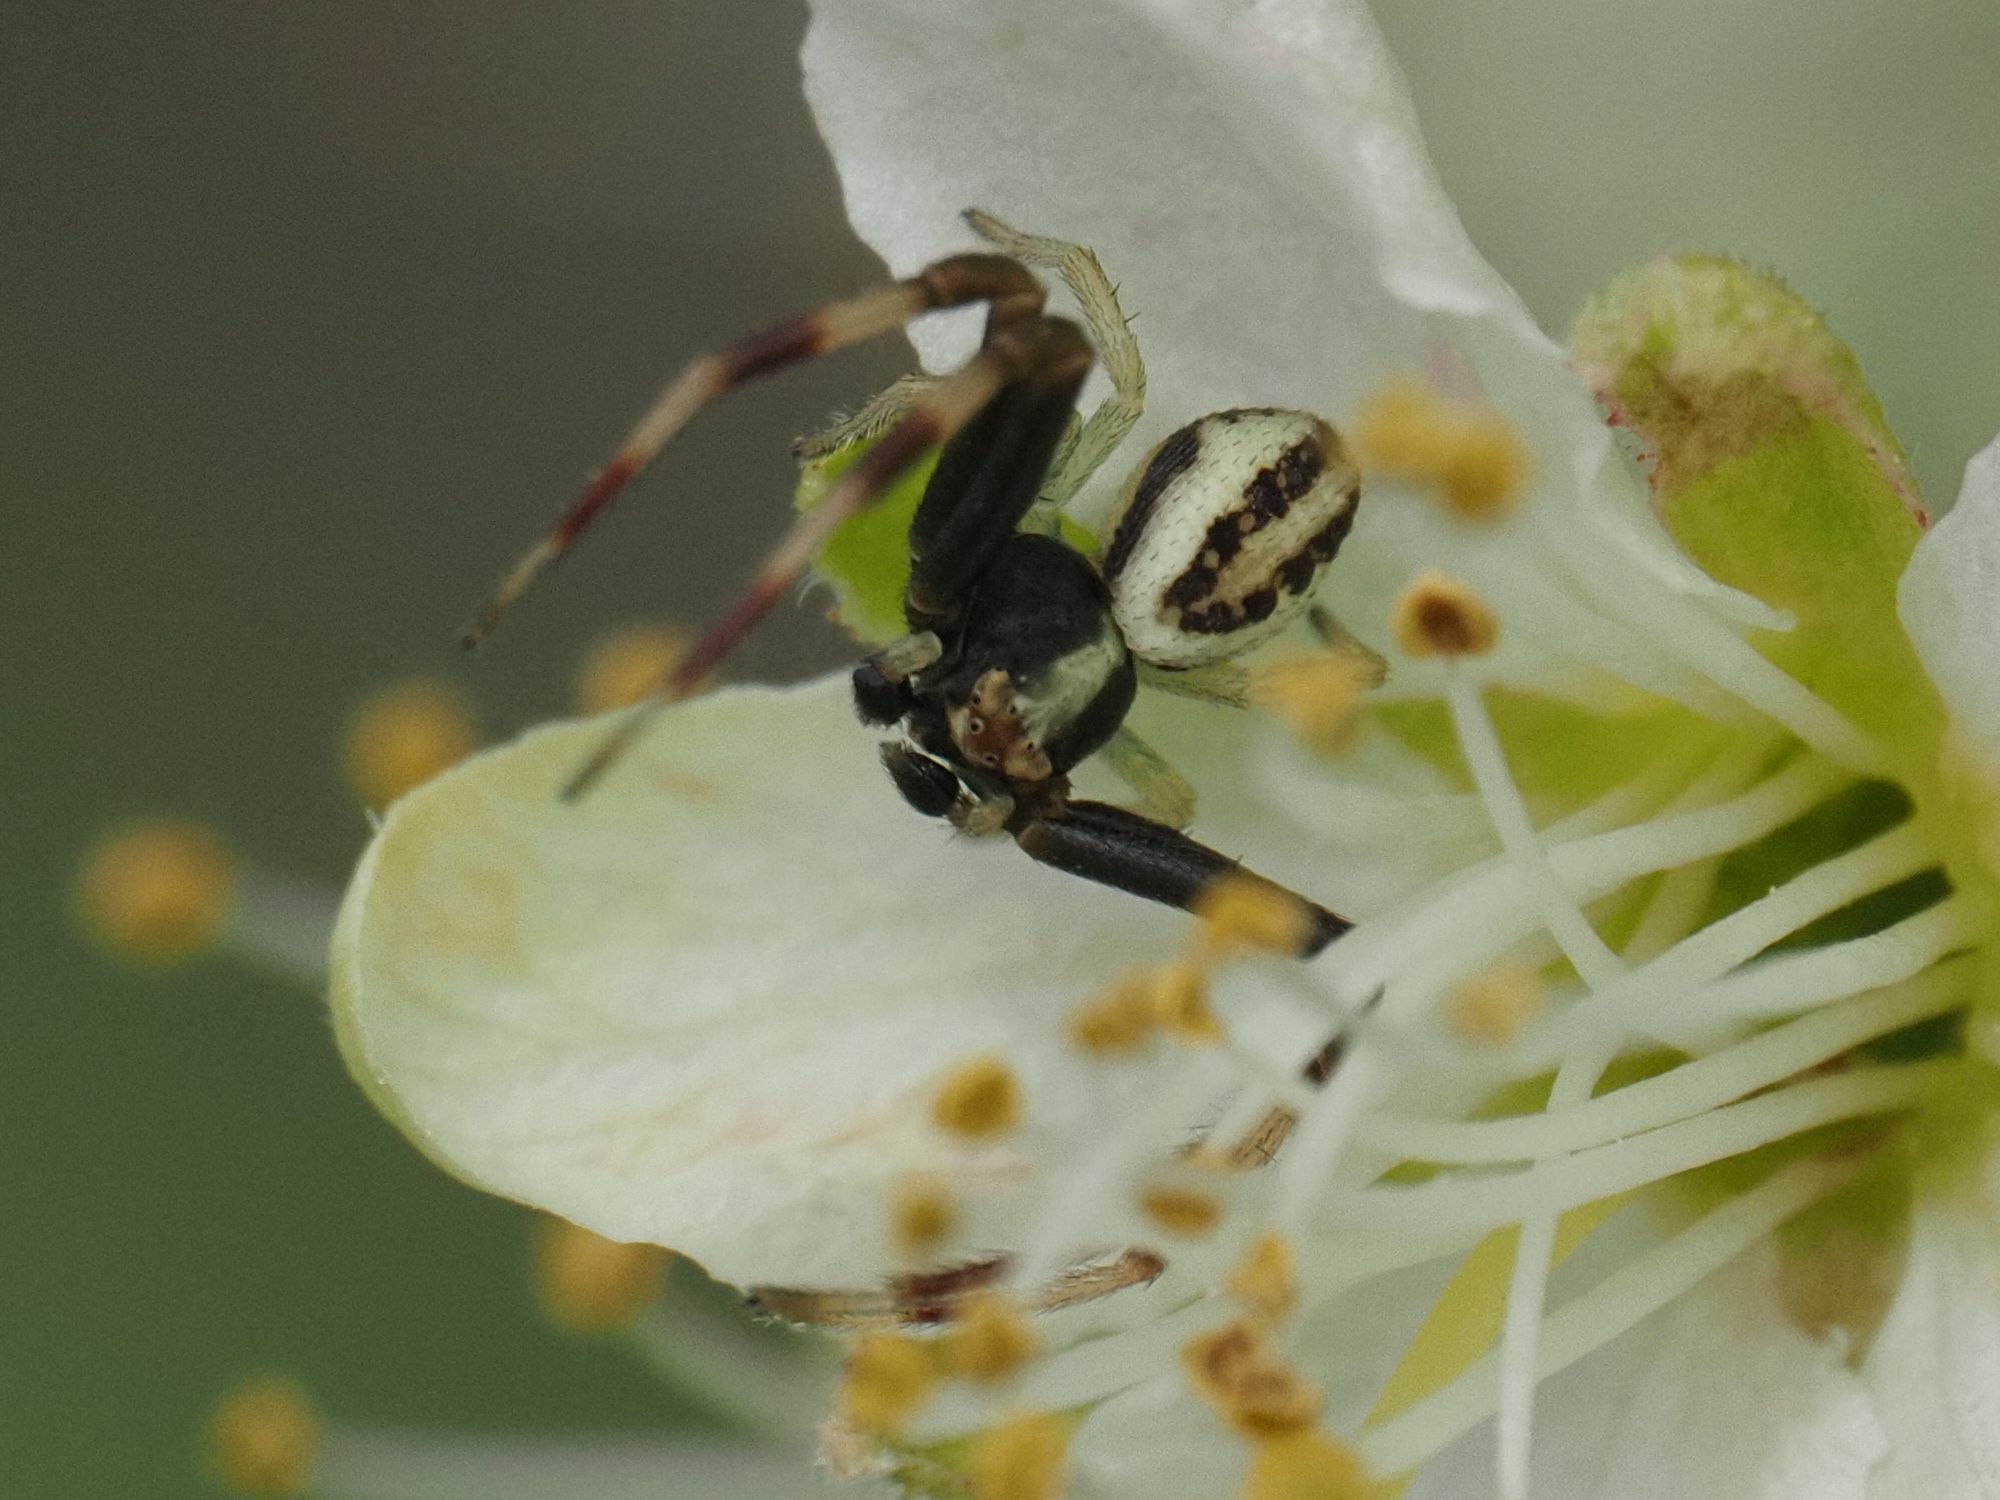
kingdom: Animalia
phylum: Arthropoda
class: Arachnida
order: Araneae
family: Thomisidae
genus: Misumena
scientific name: Misumena vatia
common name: Goldenrod crab spider
